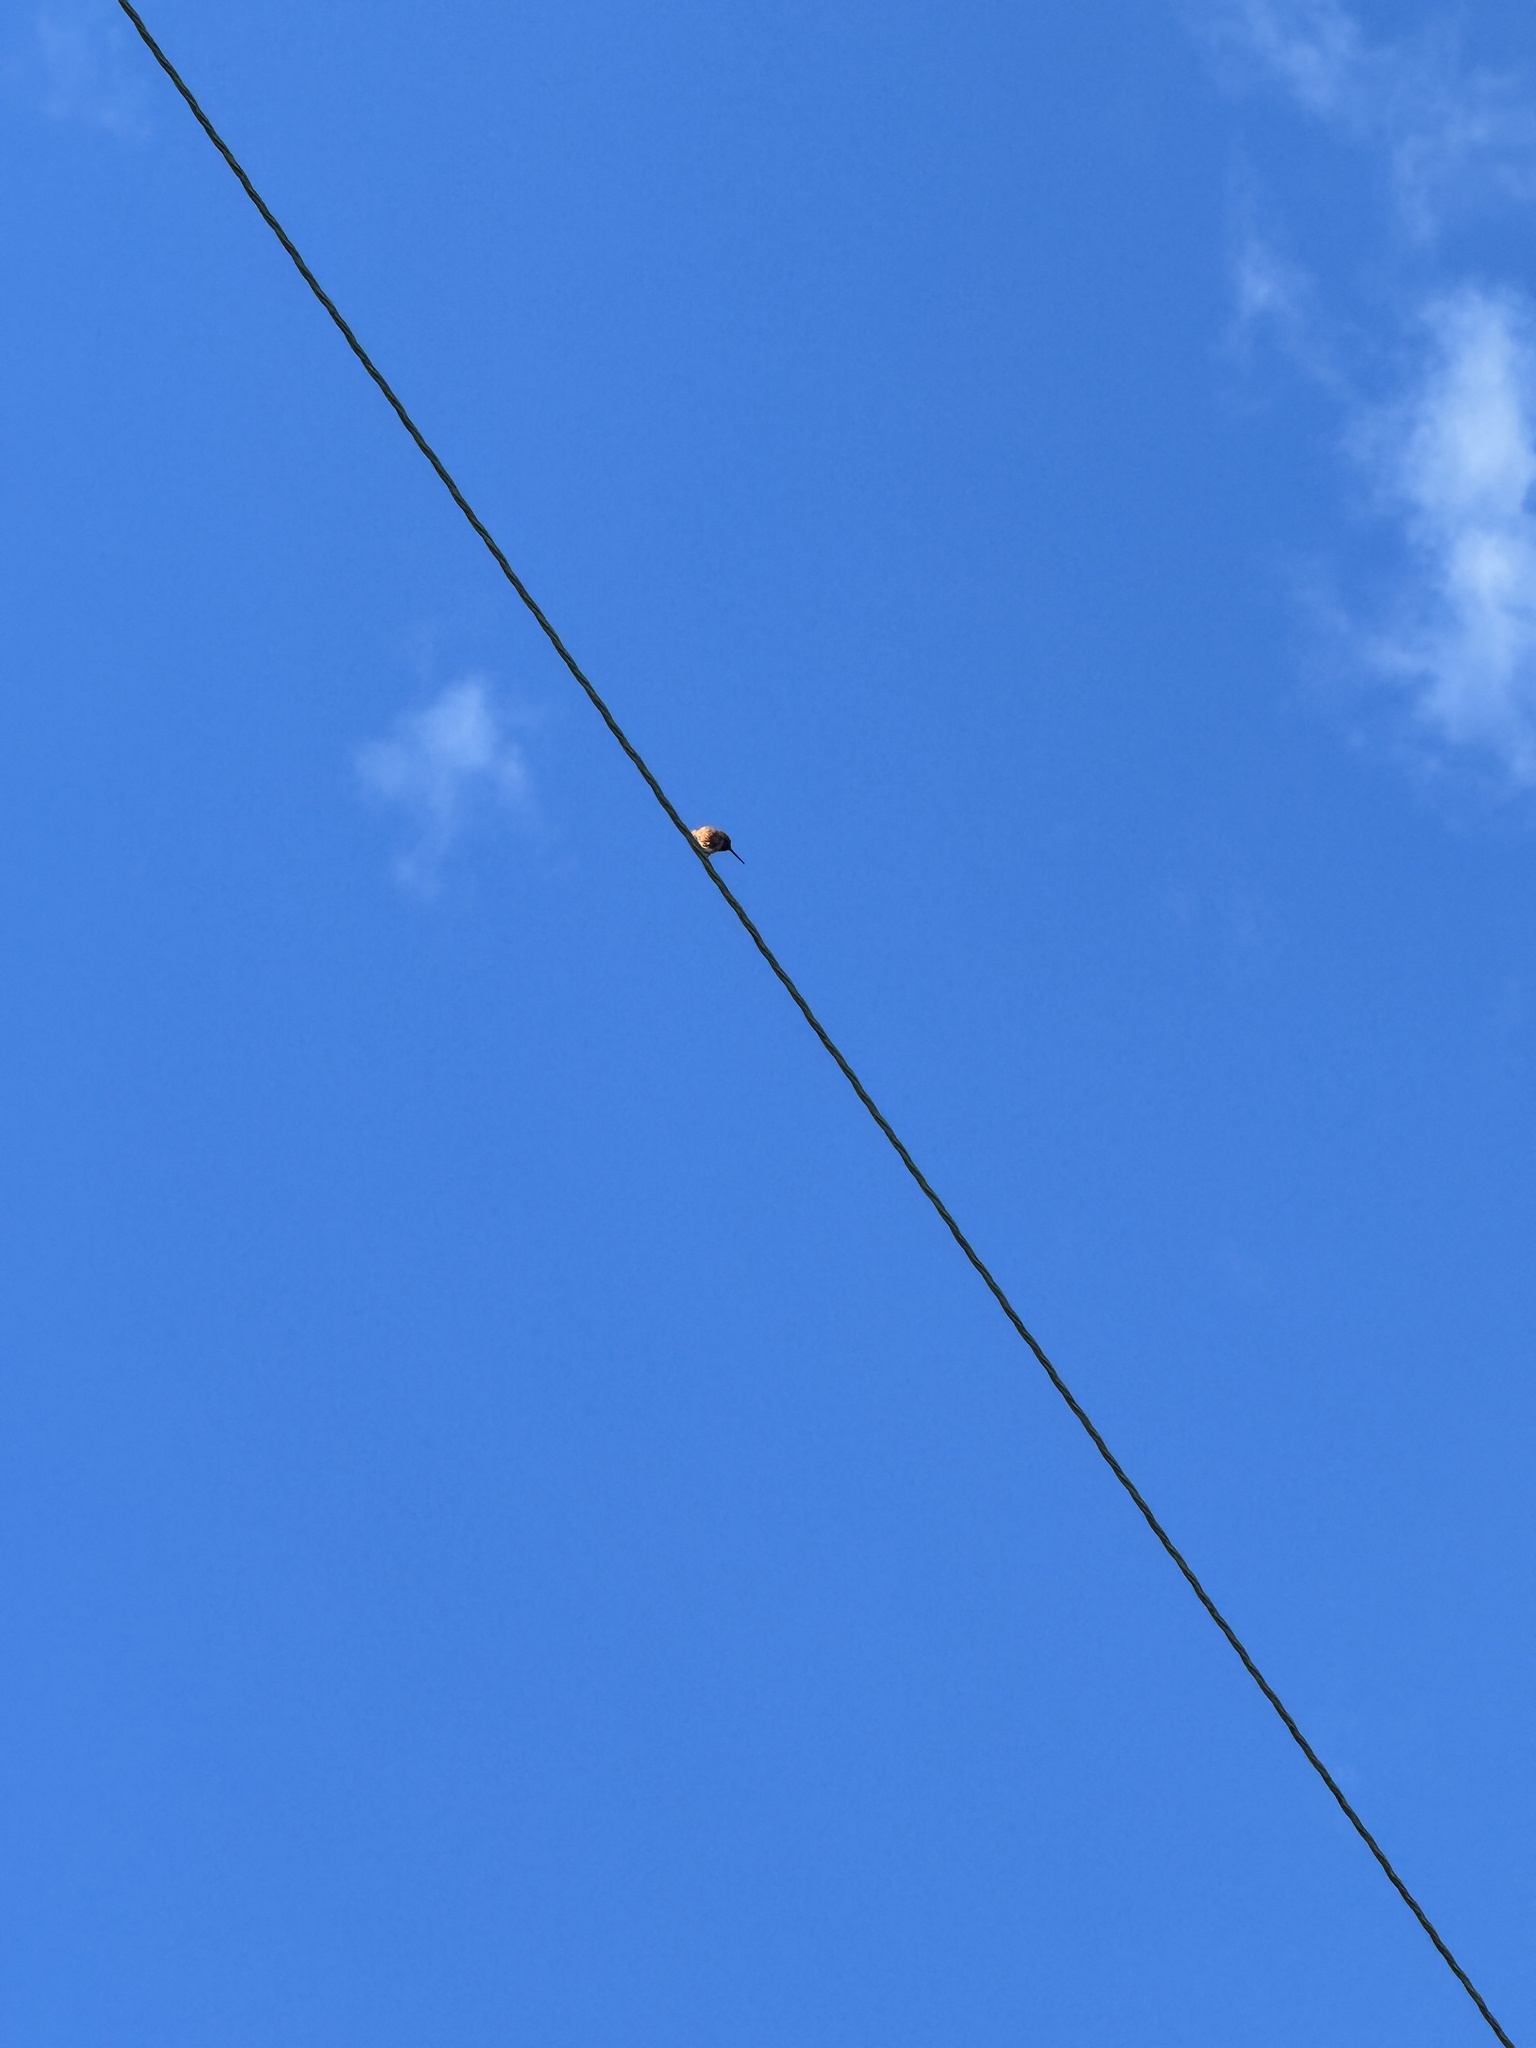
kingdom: Animalia
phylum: Chordata
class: Aves
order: Apodiformes
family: Trochilidae
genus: Selasphorus
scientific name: Selasphorus sasin
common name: Allen's hummingbird
